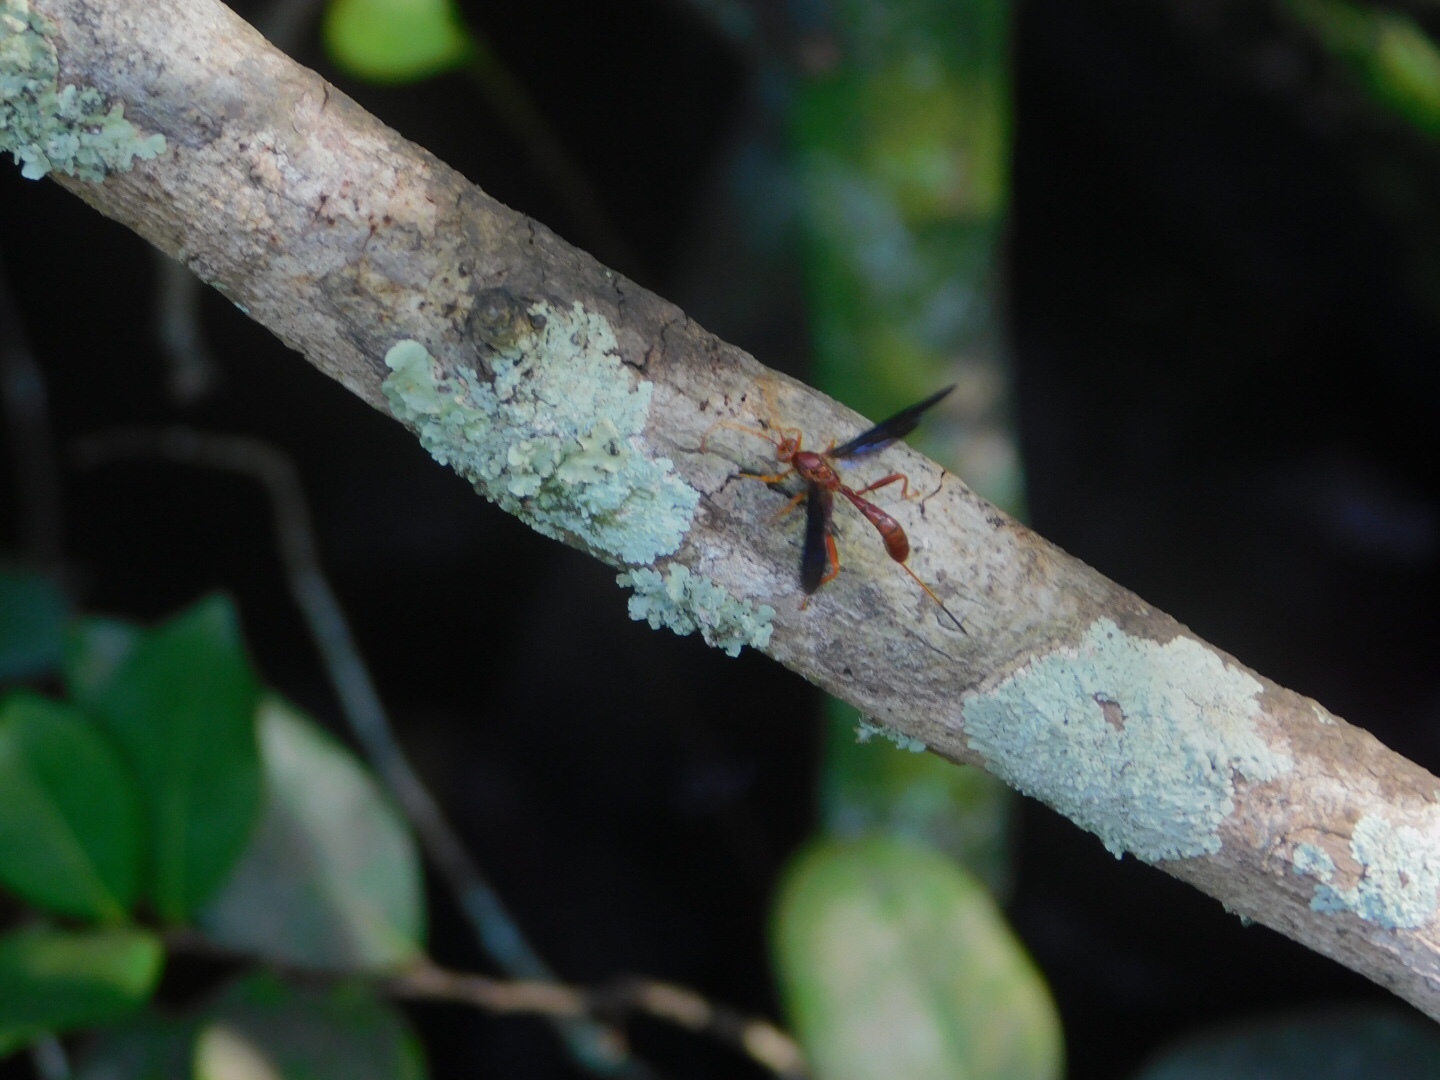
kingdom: Animalia
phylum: Arthropoda
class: Insecta
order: Hymenoptera
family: Ichneumonidae
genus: Labena
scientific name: Labena grallator
